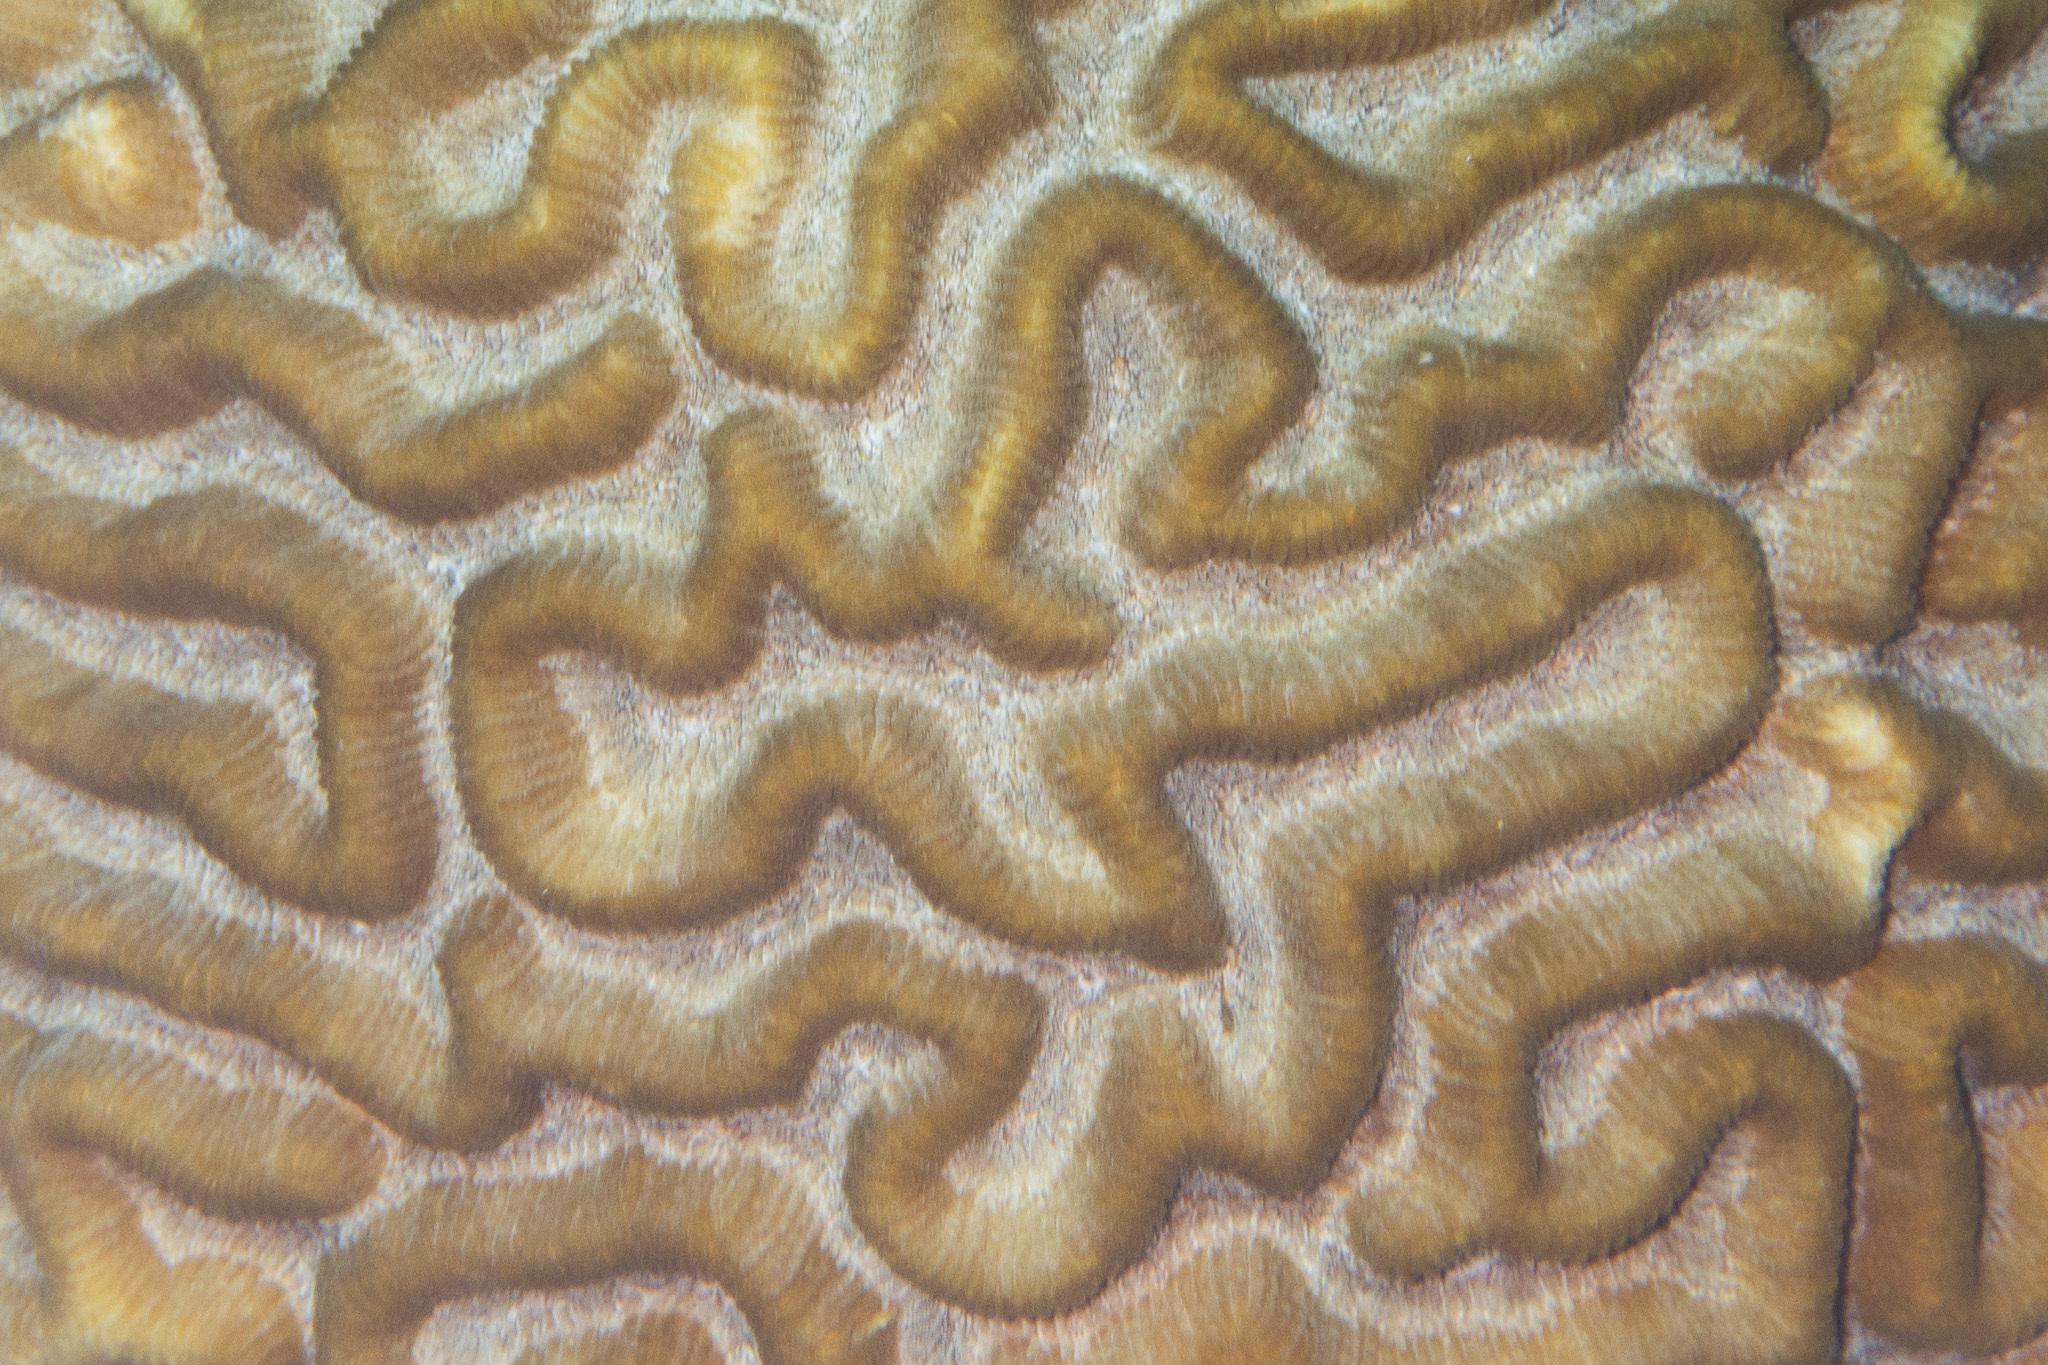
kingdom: Animalia
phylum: Cnidaria
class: Anthozoa
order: Scleractinia
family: Faviidae
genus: Pseudodiploria
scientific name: Pseudodiploria strigosa
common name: Symmetrical brain coral
